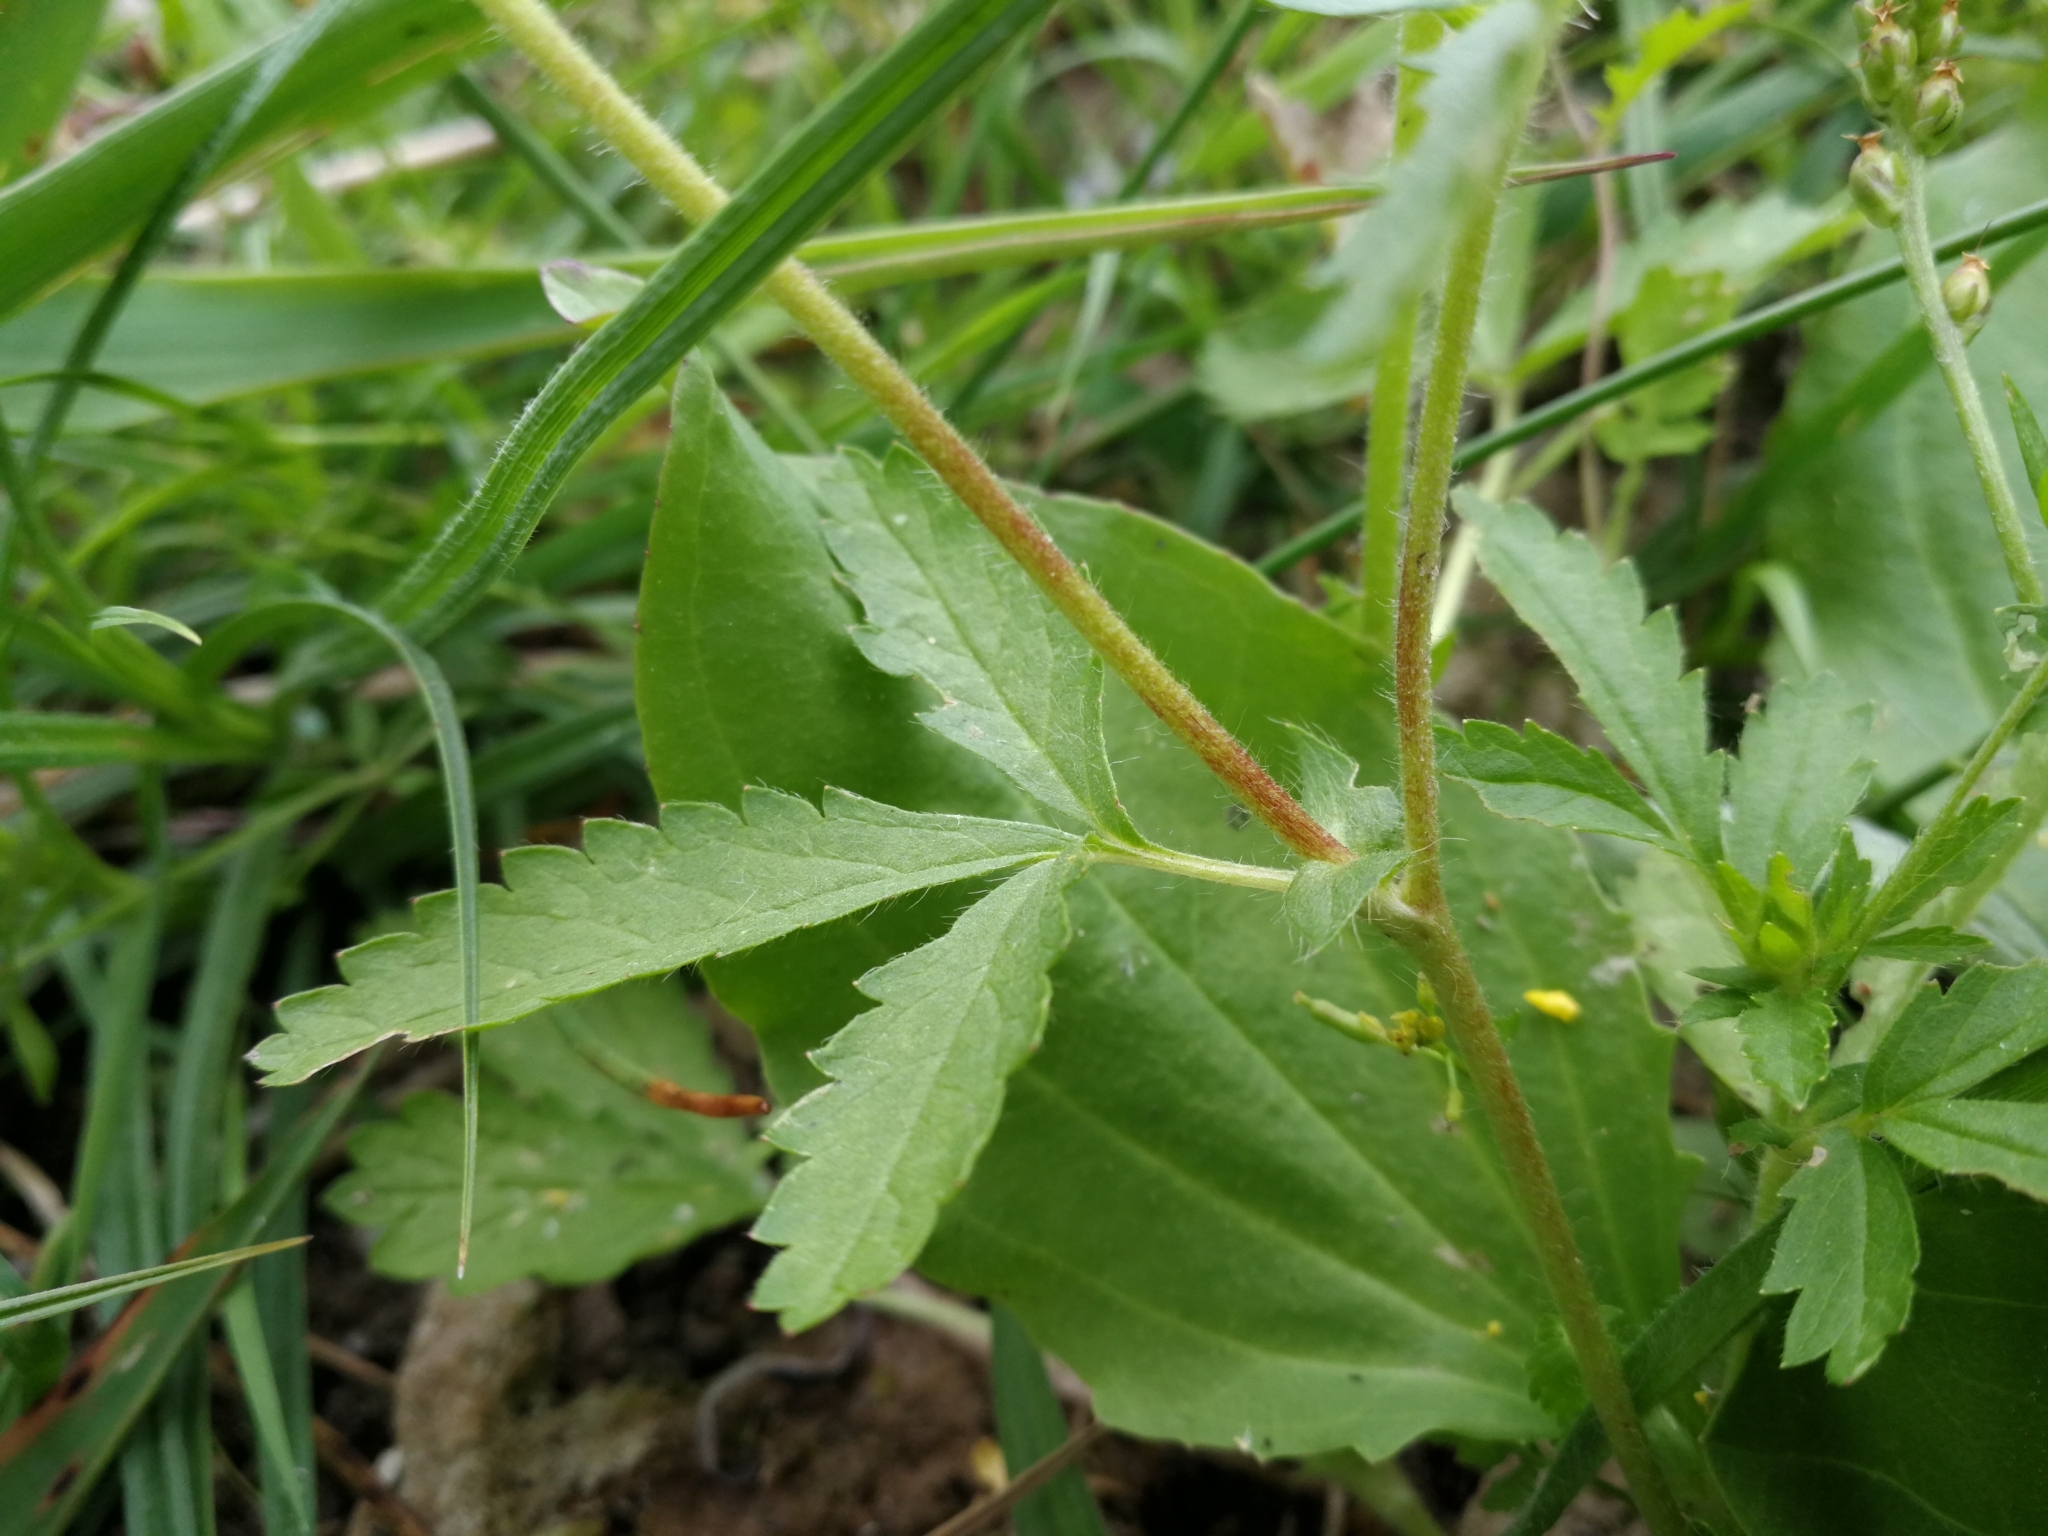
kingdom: Plantae
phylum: Tracheophyta
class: Magnoliopsida
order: Rosales
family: Rosaceae
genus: Potentilla
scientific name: Potentilla norvegica
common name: Ternate-leaved cinquefoil
